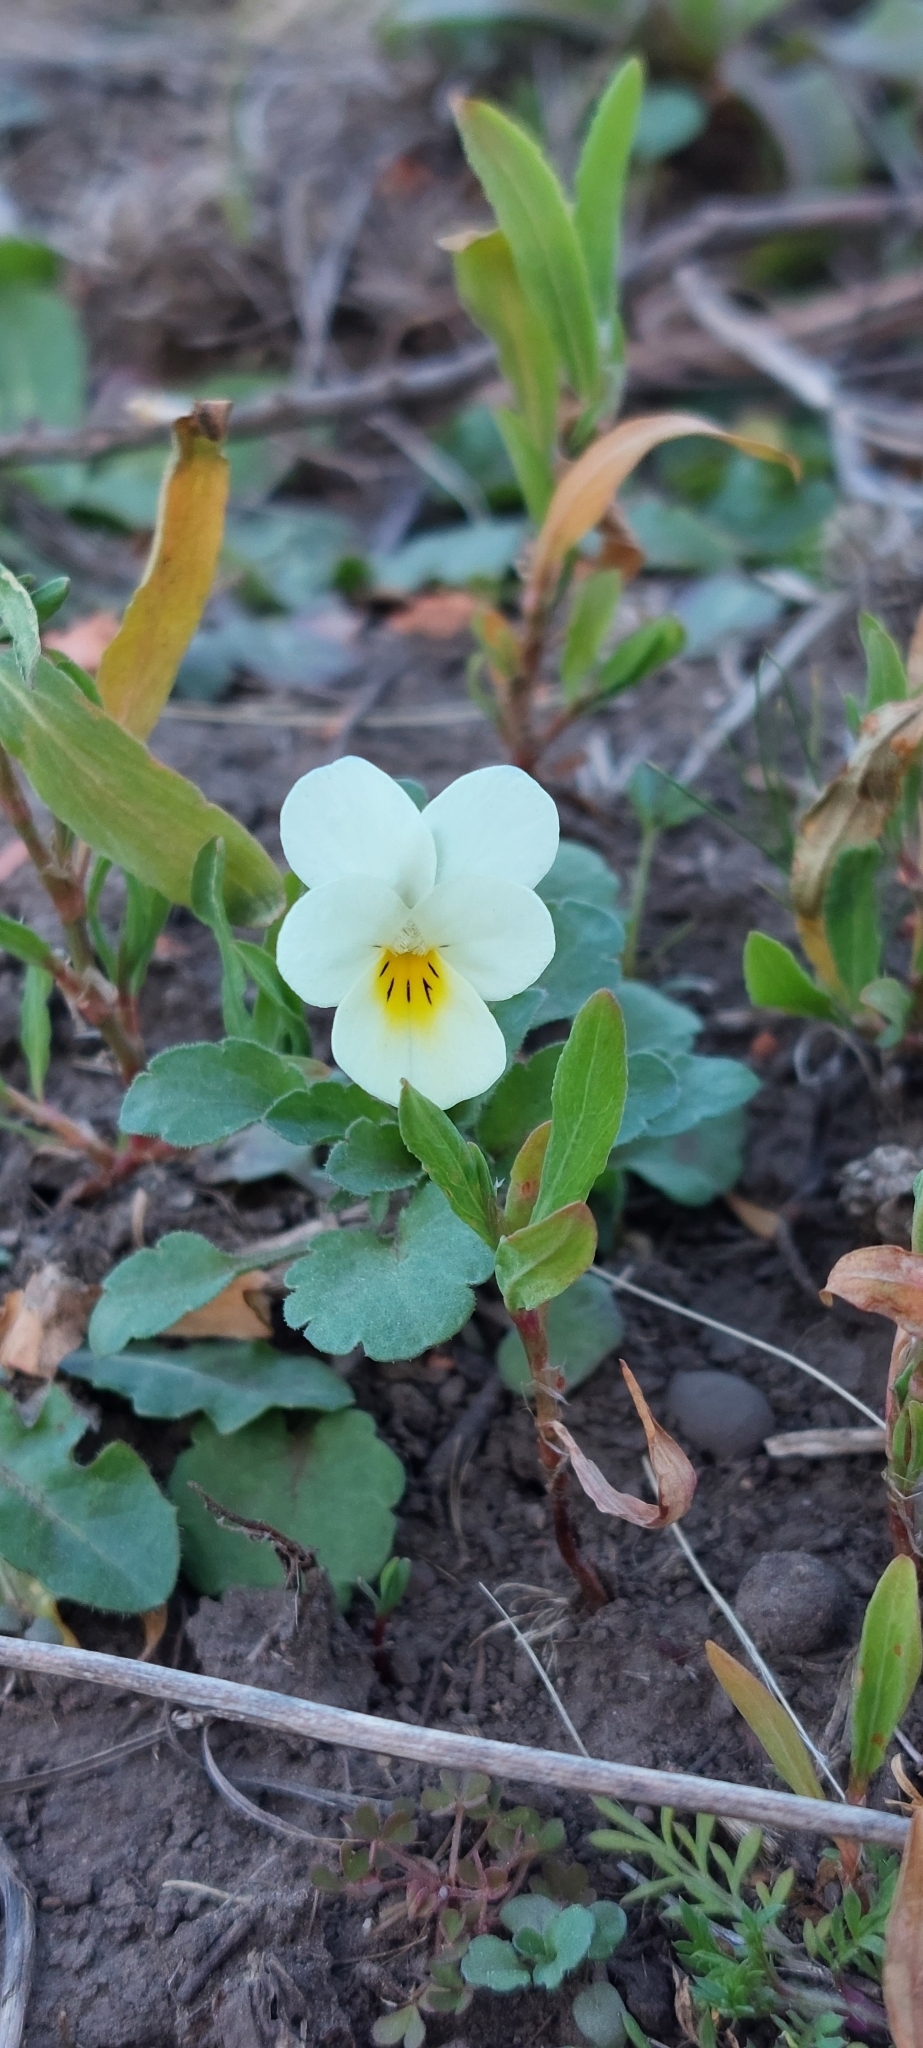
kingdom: Plantae
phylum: Tracheophyta
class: Magnoliopsida
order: Malpighiales
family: Violaceae
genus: Viola
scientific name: Viola arvensis
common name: Field pansy
